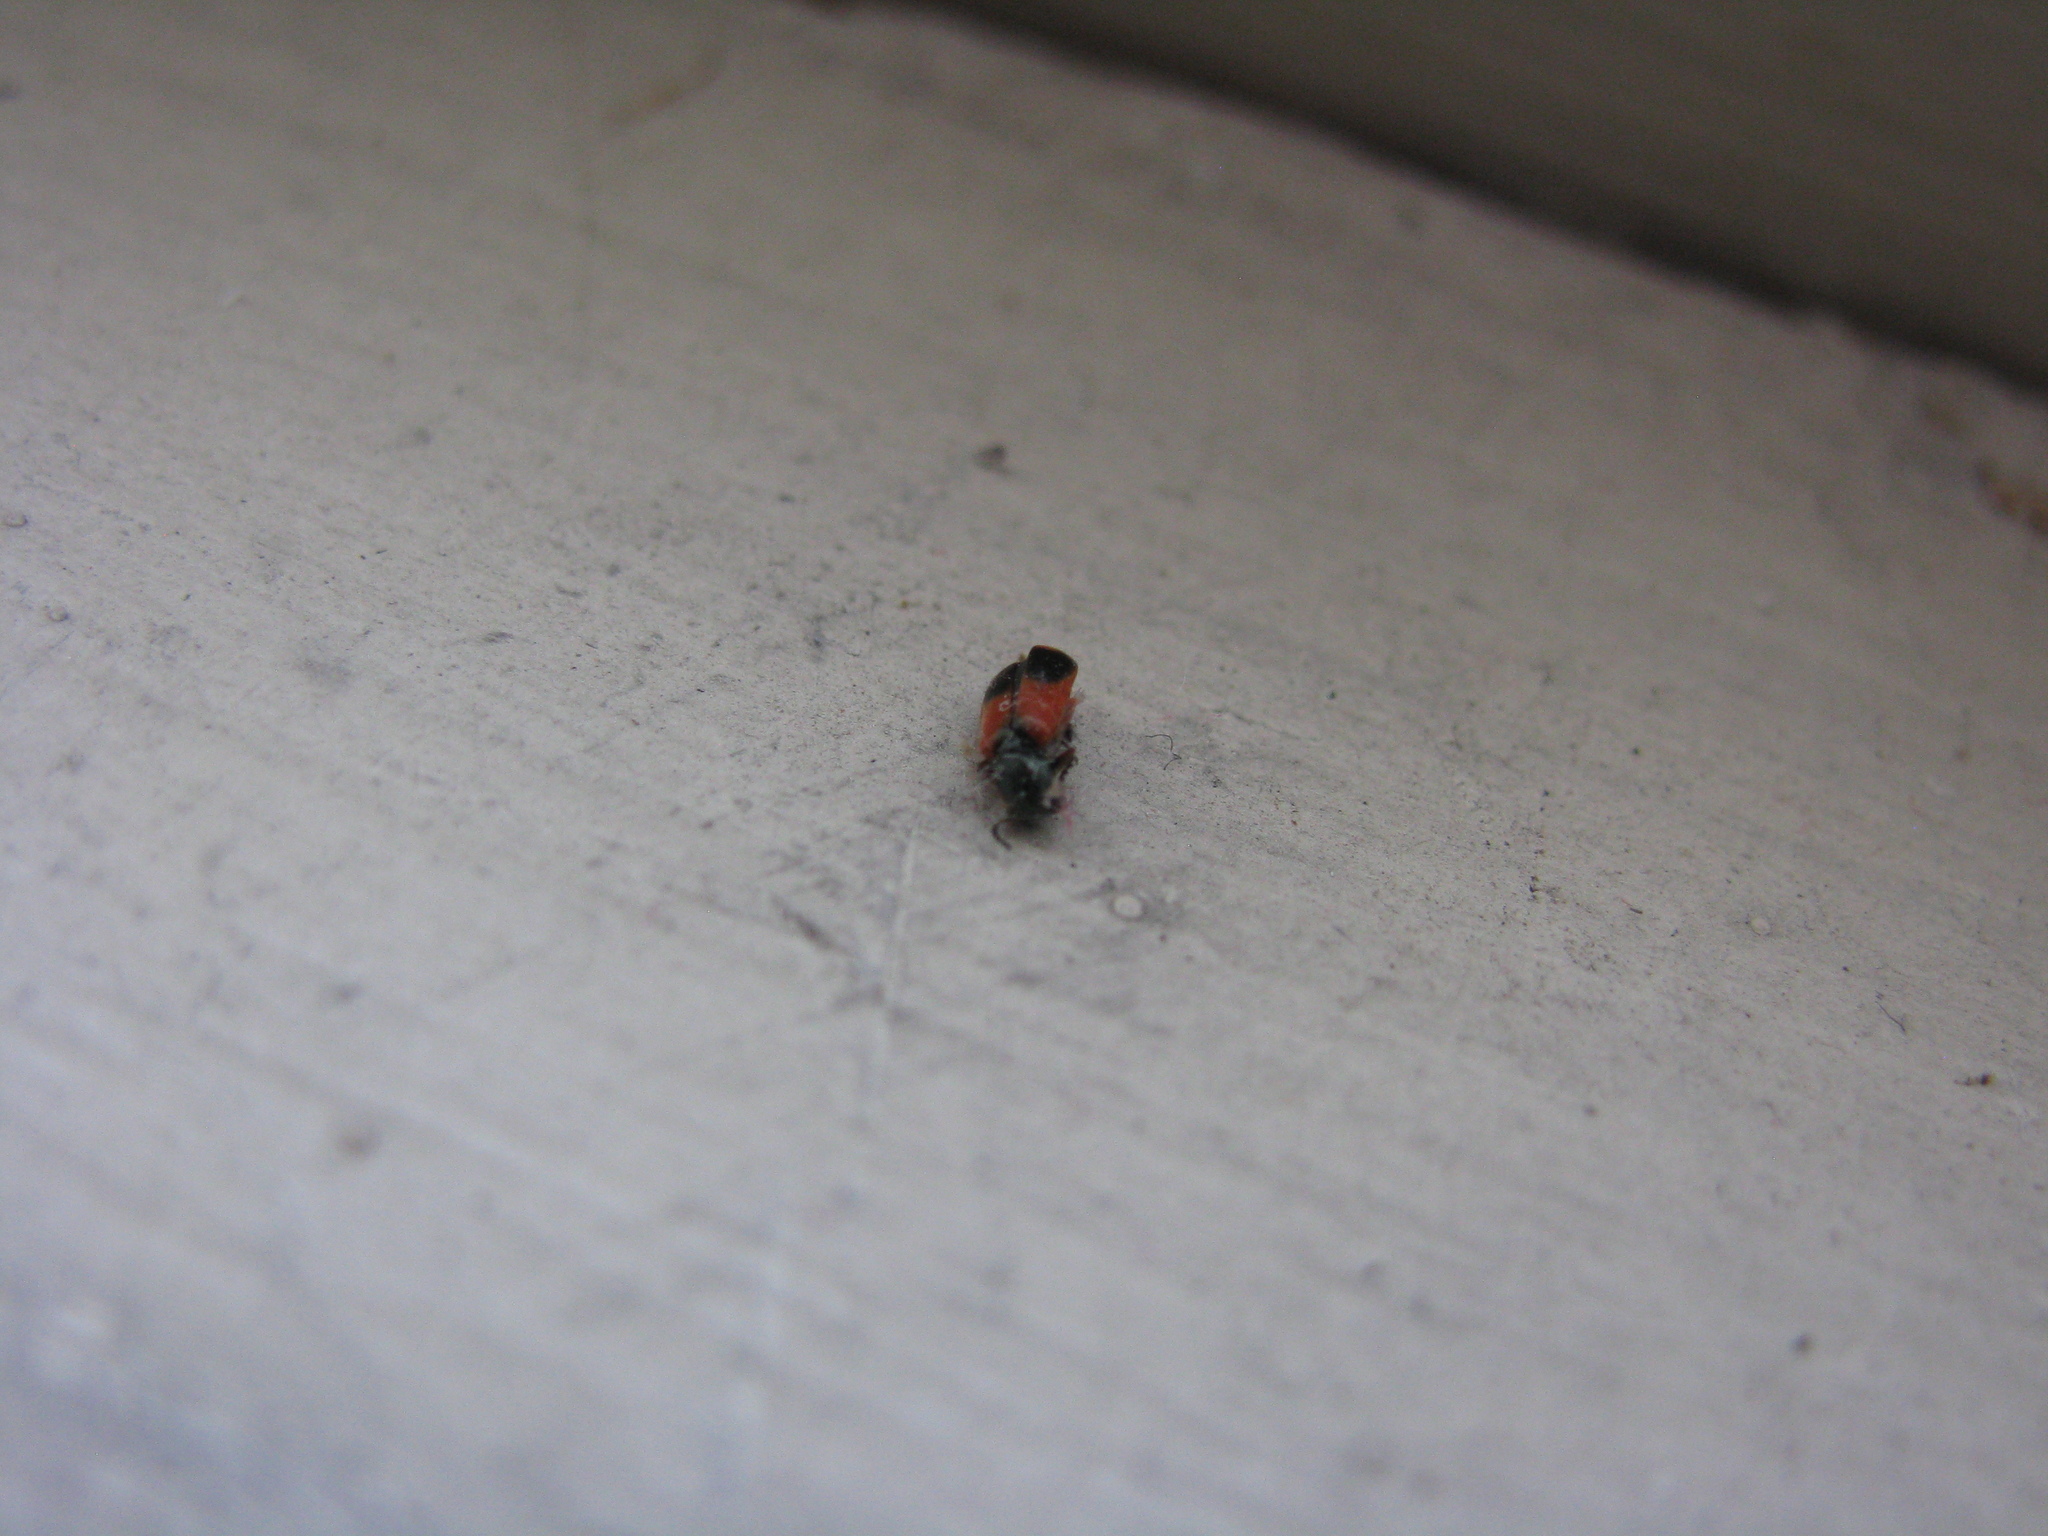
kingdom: Animalia
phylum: Arthropoda
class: Insecta
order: Coleoptera
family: Melyridae
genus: Anthocomus
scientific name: Anthocomus equestris
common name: Black-banded soft-winged flower beetle
